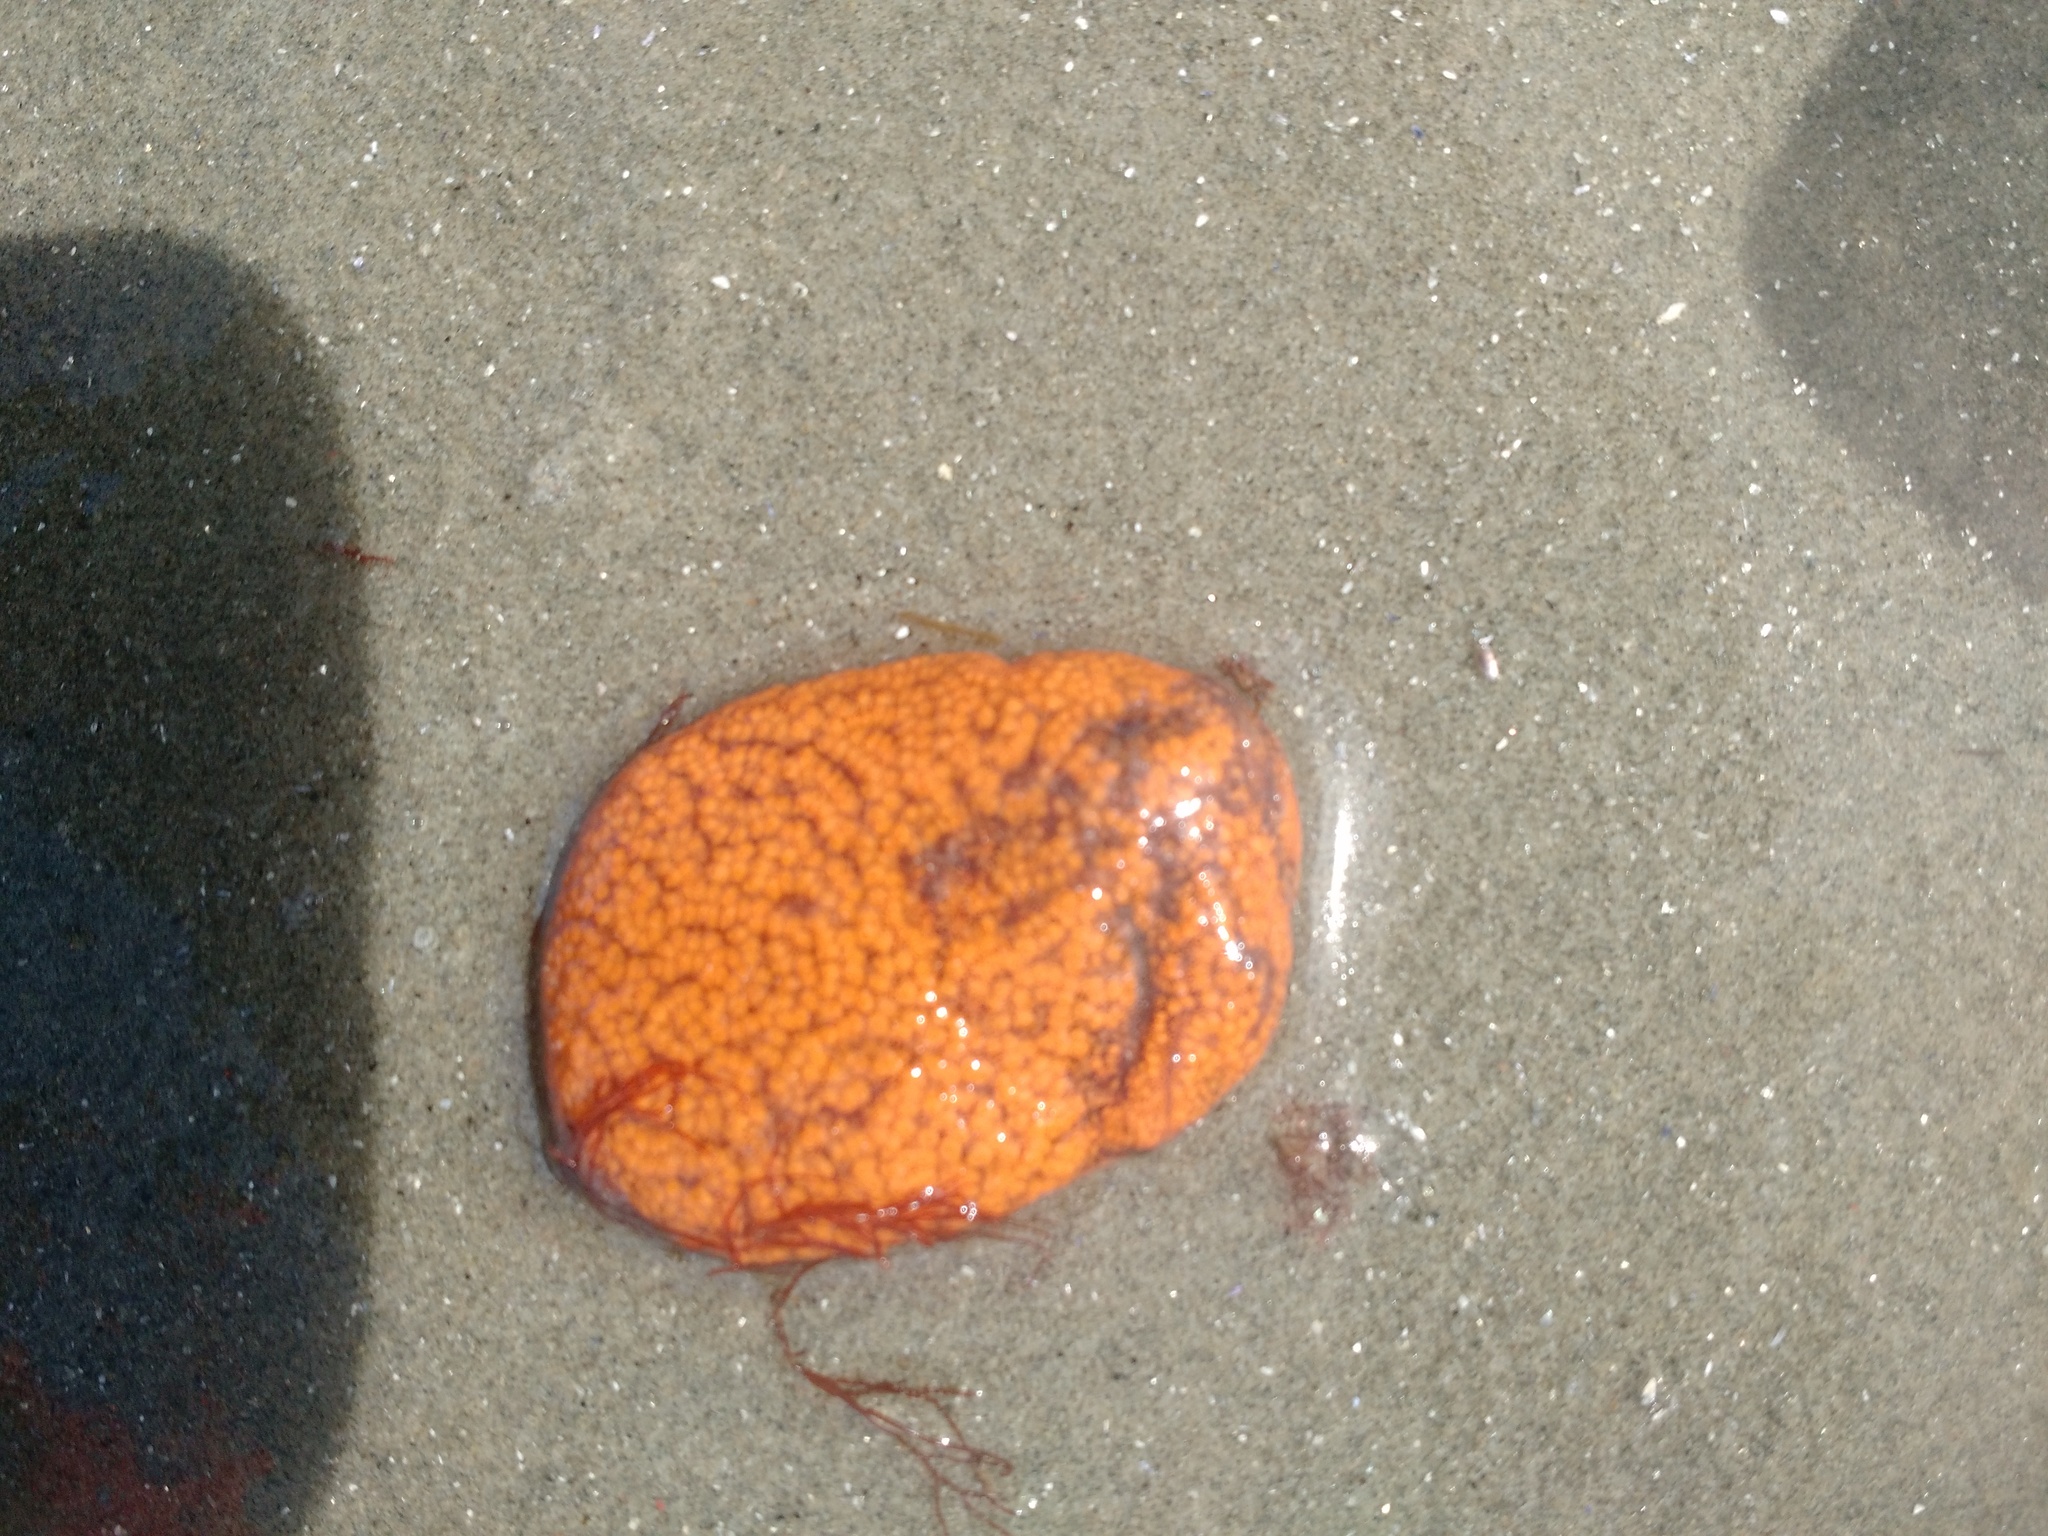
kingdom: Animalia
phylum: Chordata
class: Ascidiacea
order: Stolidobranchia
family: Styelidae
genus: Botrylloides
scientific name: Botrylloides violaceus
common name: Colonial sea squirt
